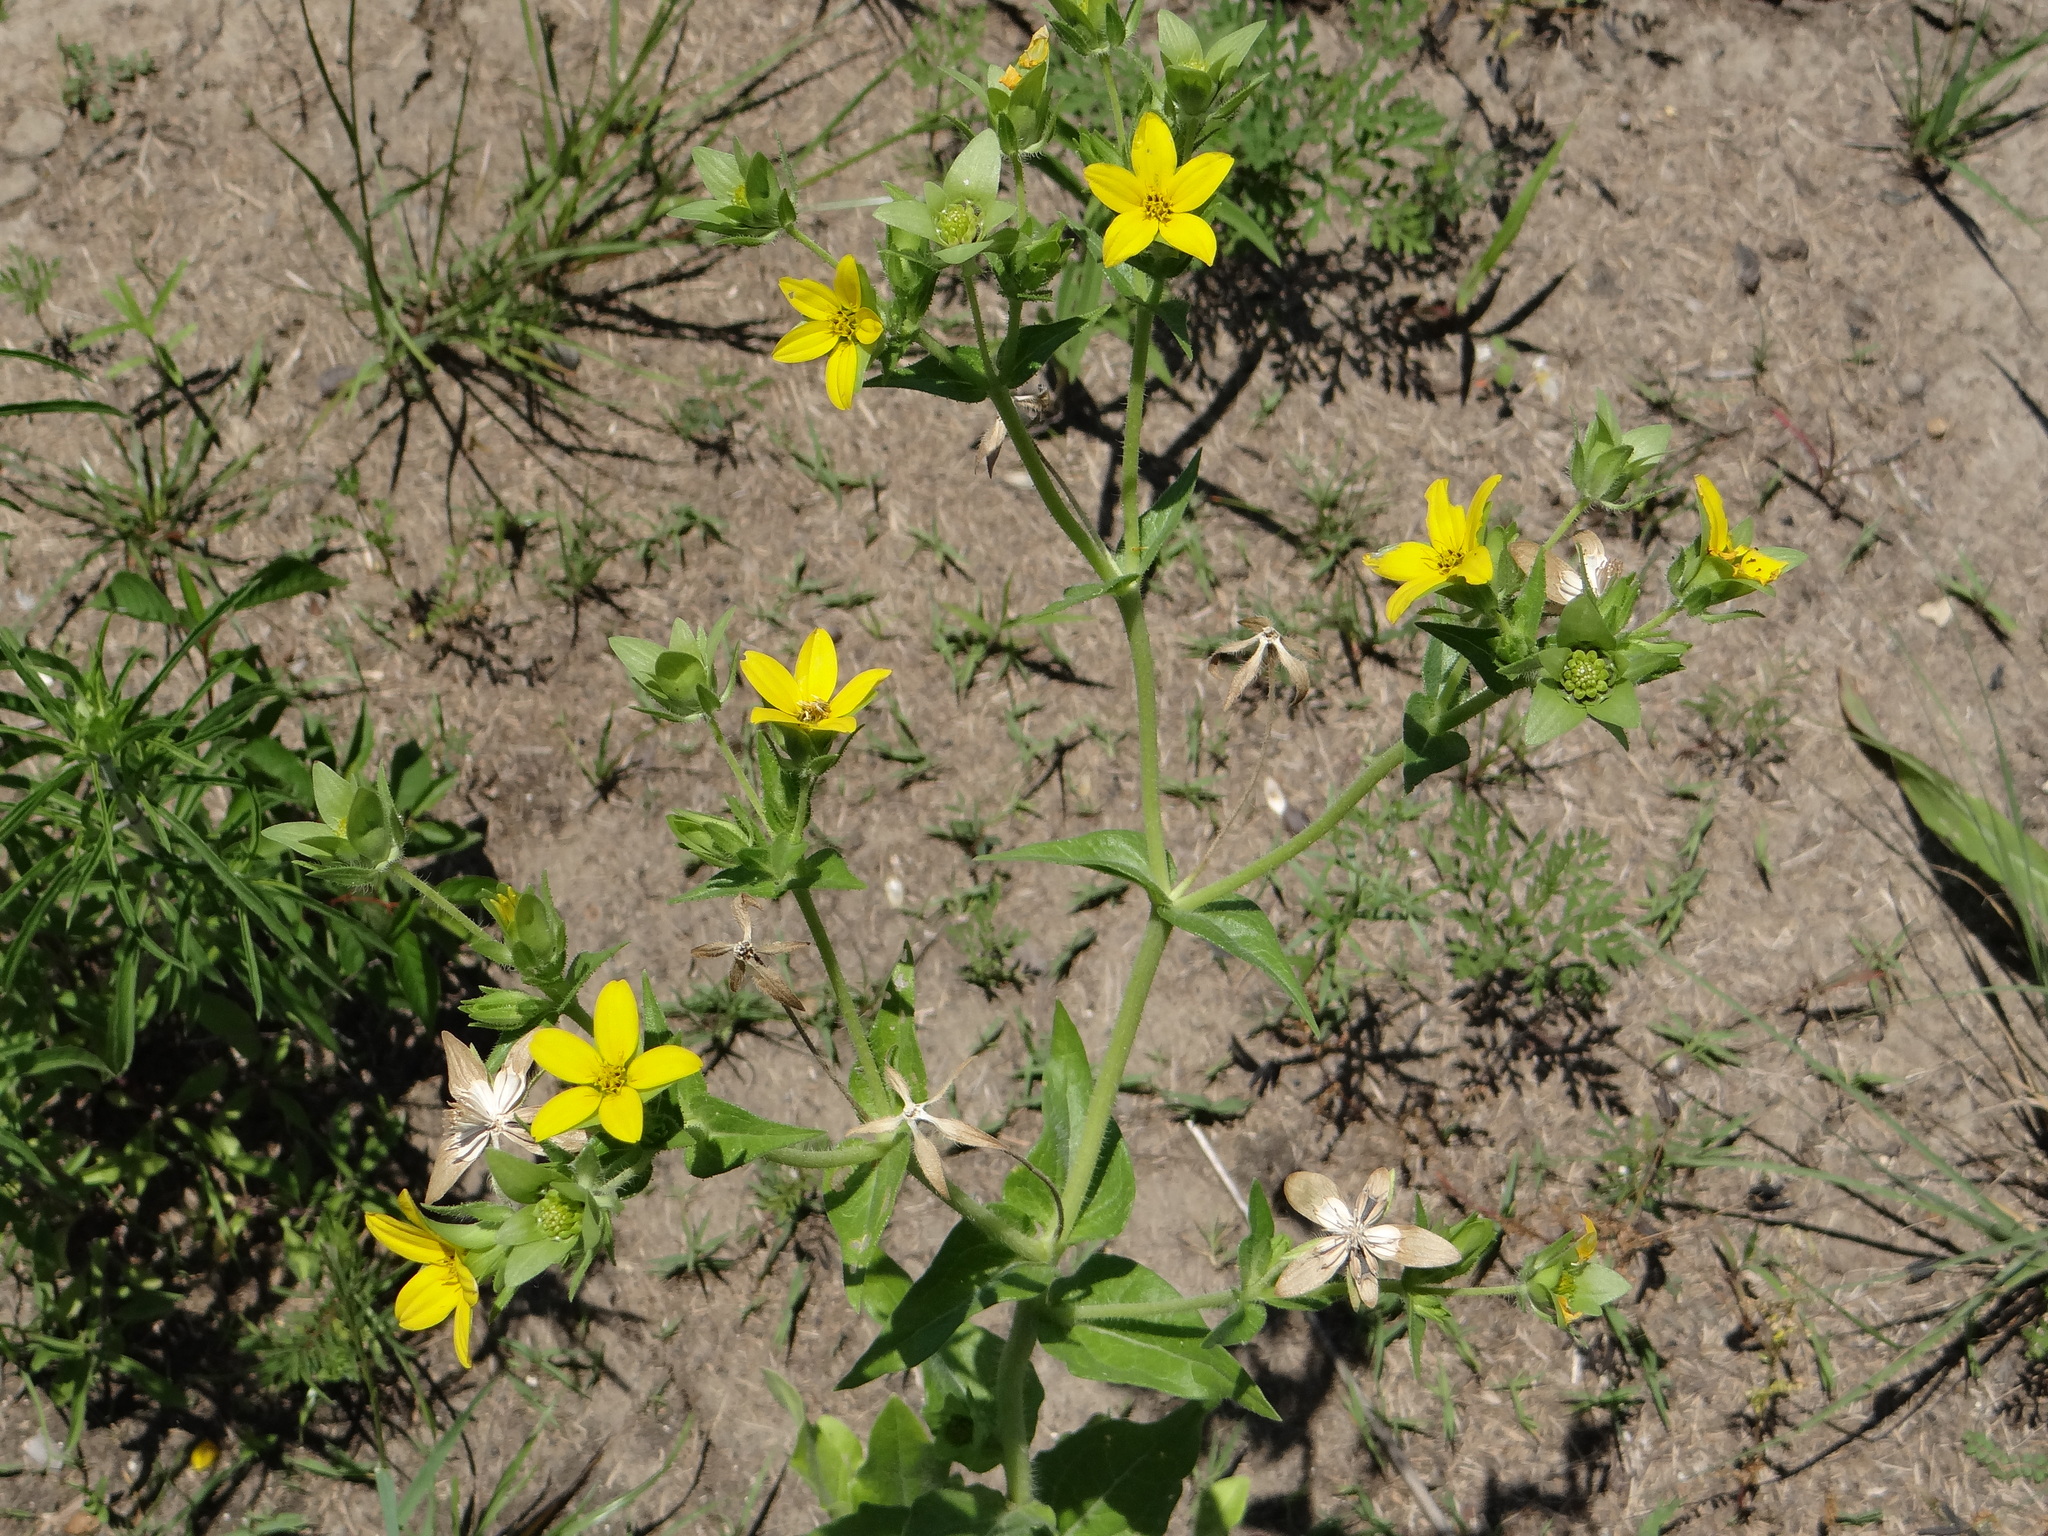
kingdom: Plantae
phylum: Tracheophyta
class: Magnoliopsida
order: Asterales
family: Asteraceae
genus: Lindheimera
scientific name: Lindheimera texana
